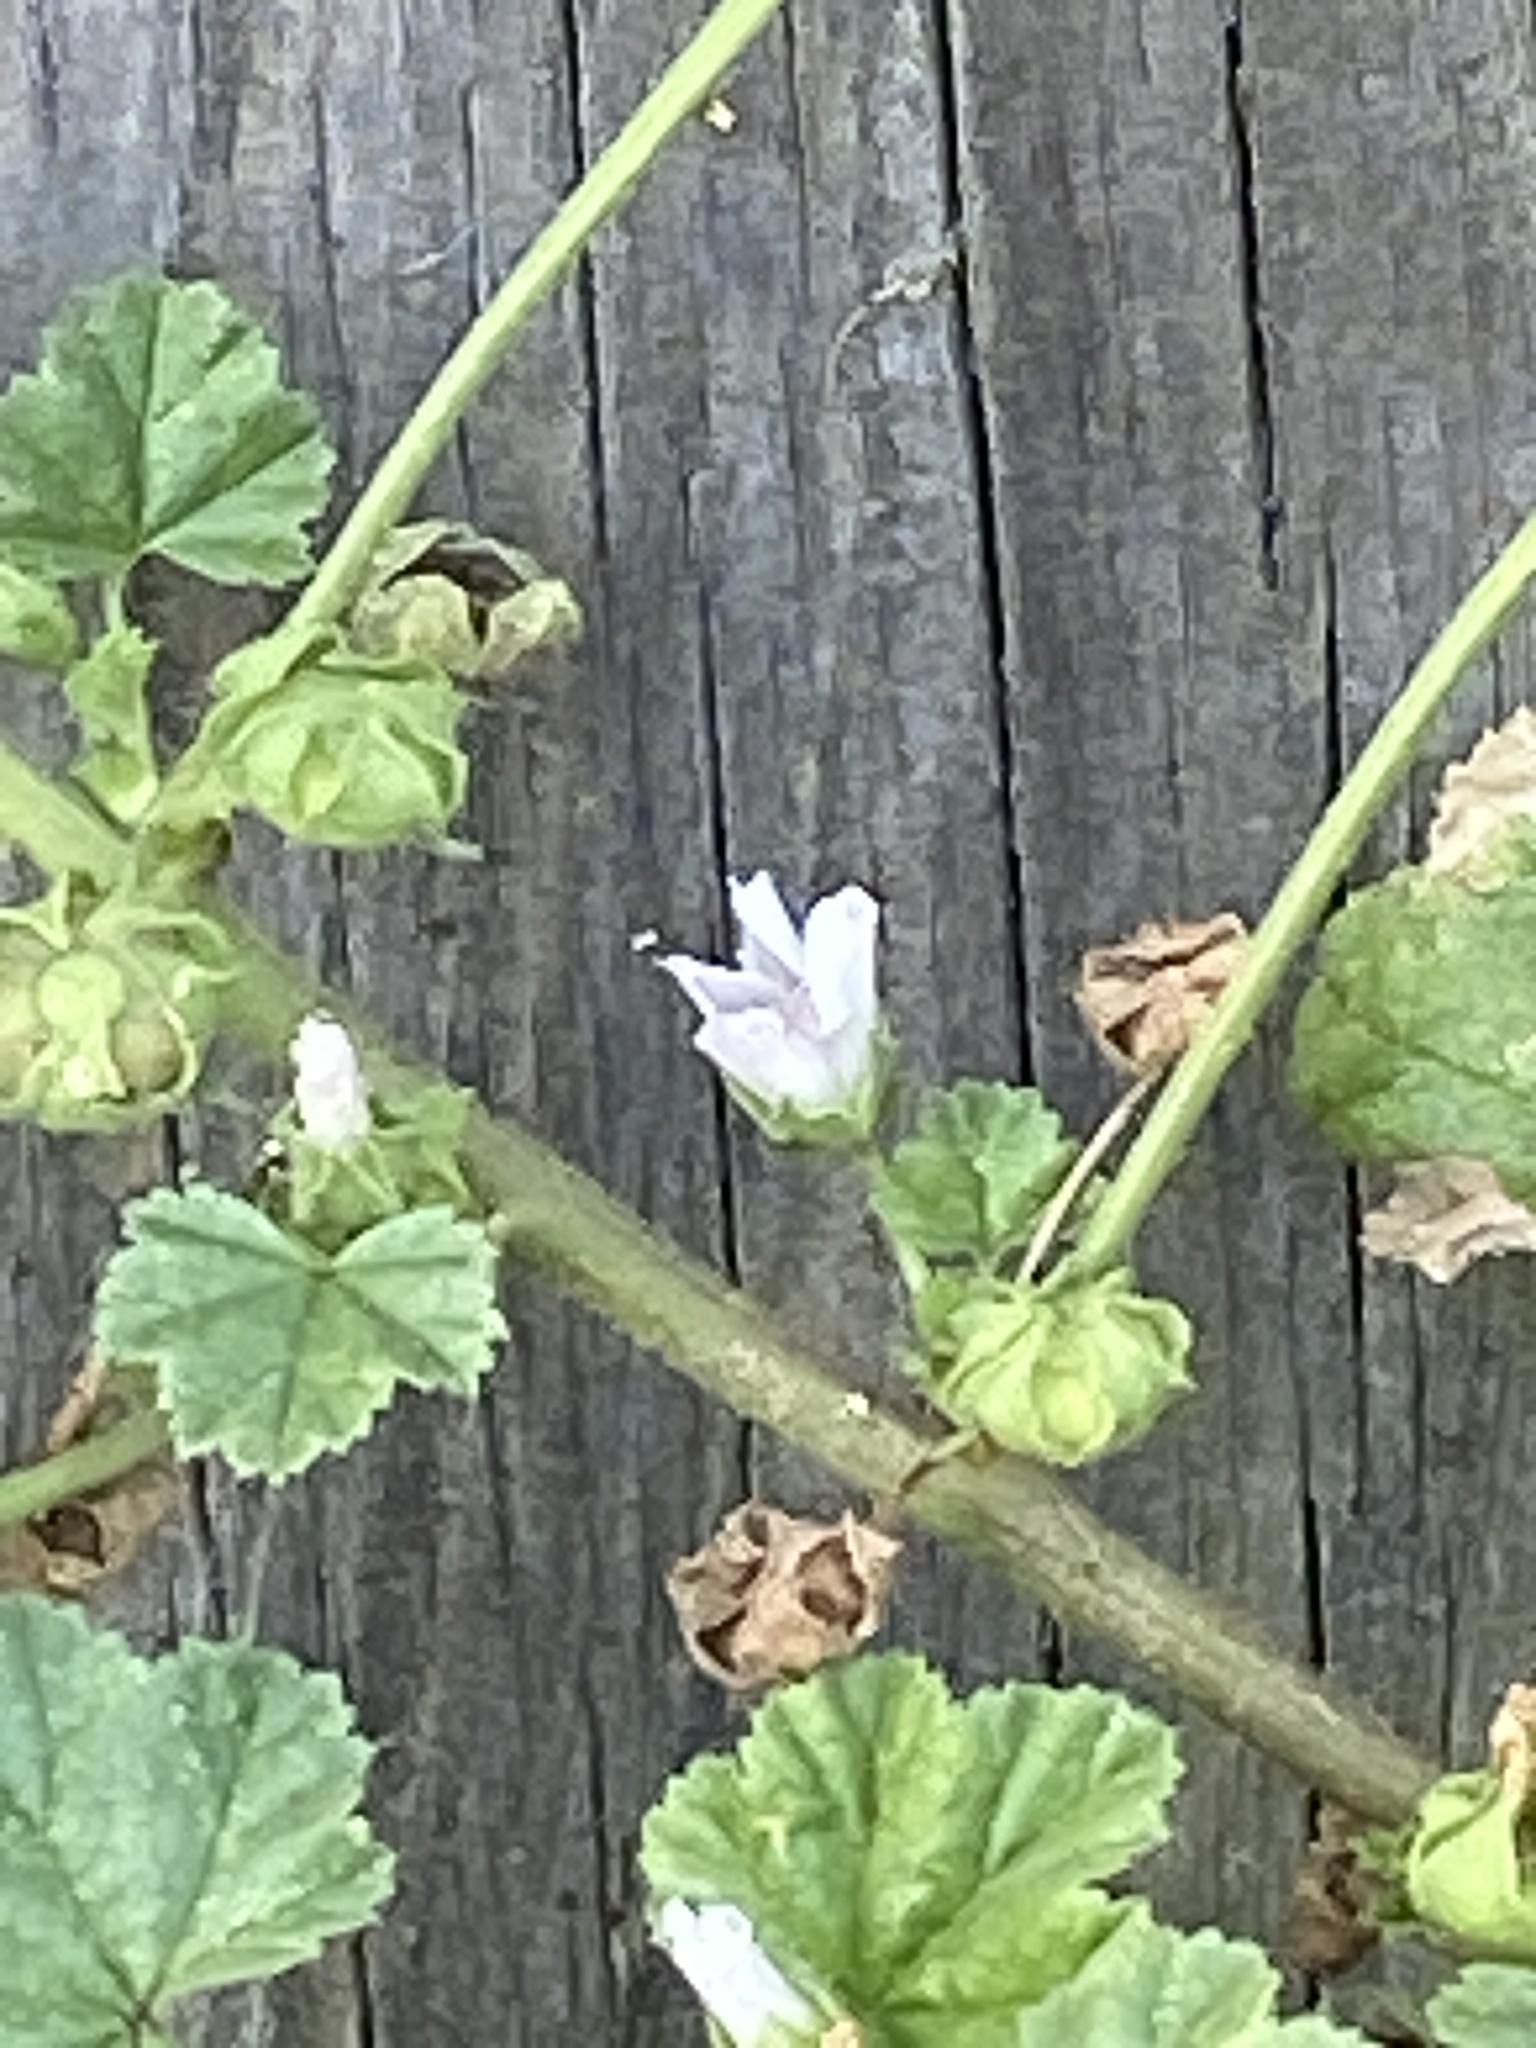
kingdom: Plantae
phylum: Tracheophyta
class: Magnoliopsida
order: Malvales
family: Malvaceae
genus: Malva
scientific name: Malva neglecta
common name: Common mallow
